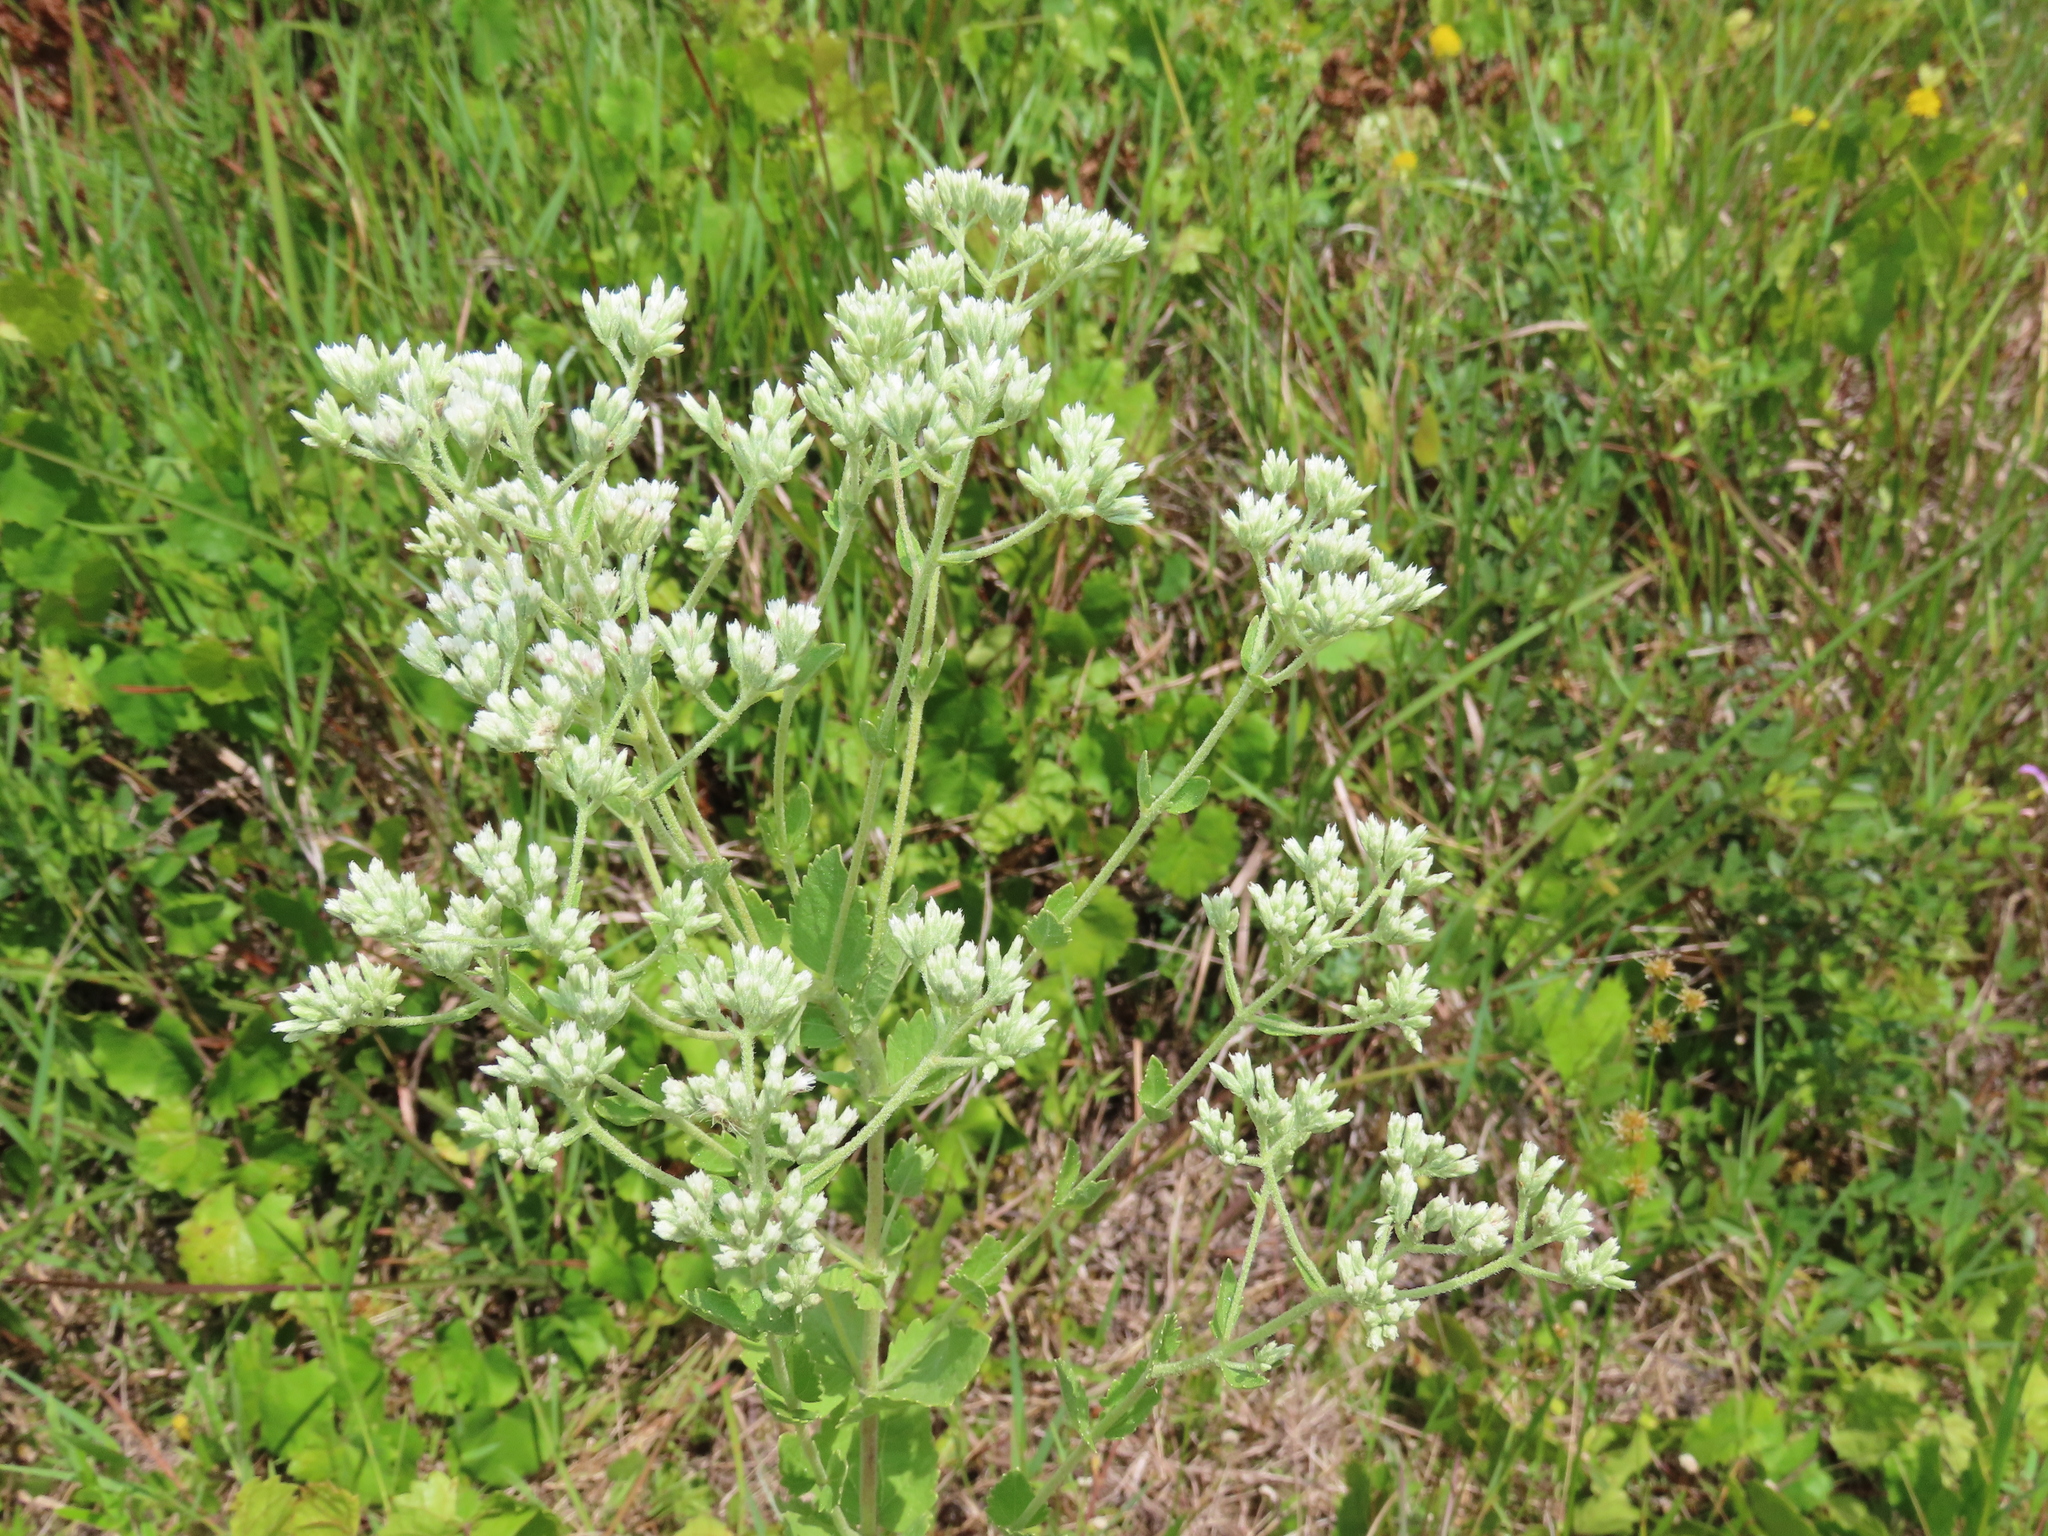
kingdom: Plantae
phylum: Tracheophyta
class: Magnoliopsida
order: Asterales
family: Asteraceae
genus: Eupatorium
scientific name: Eupatorium rotundifolium
